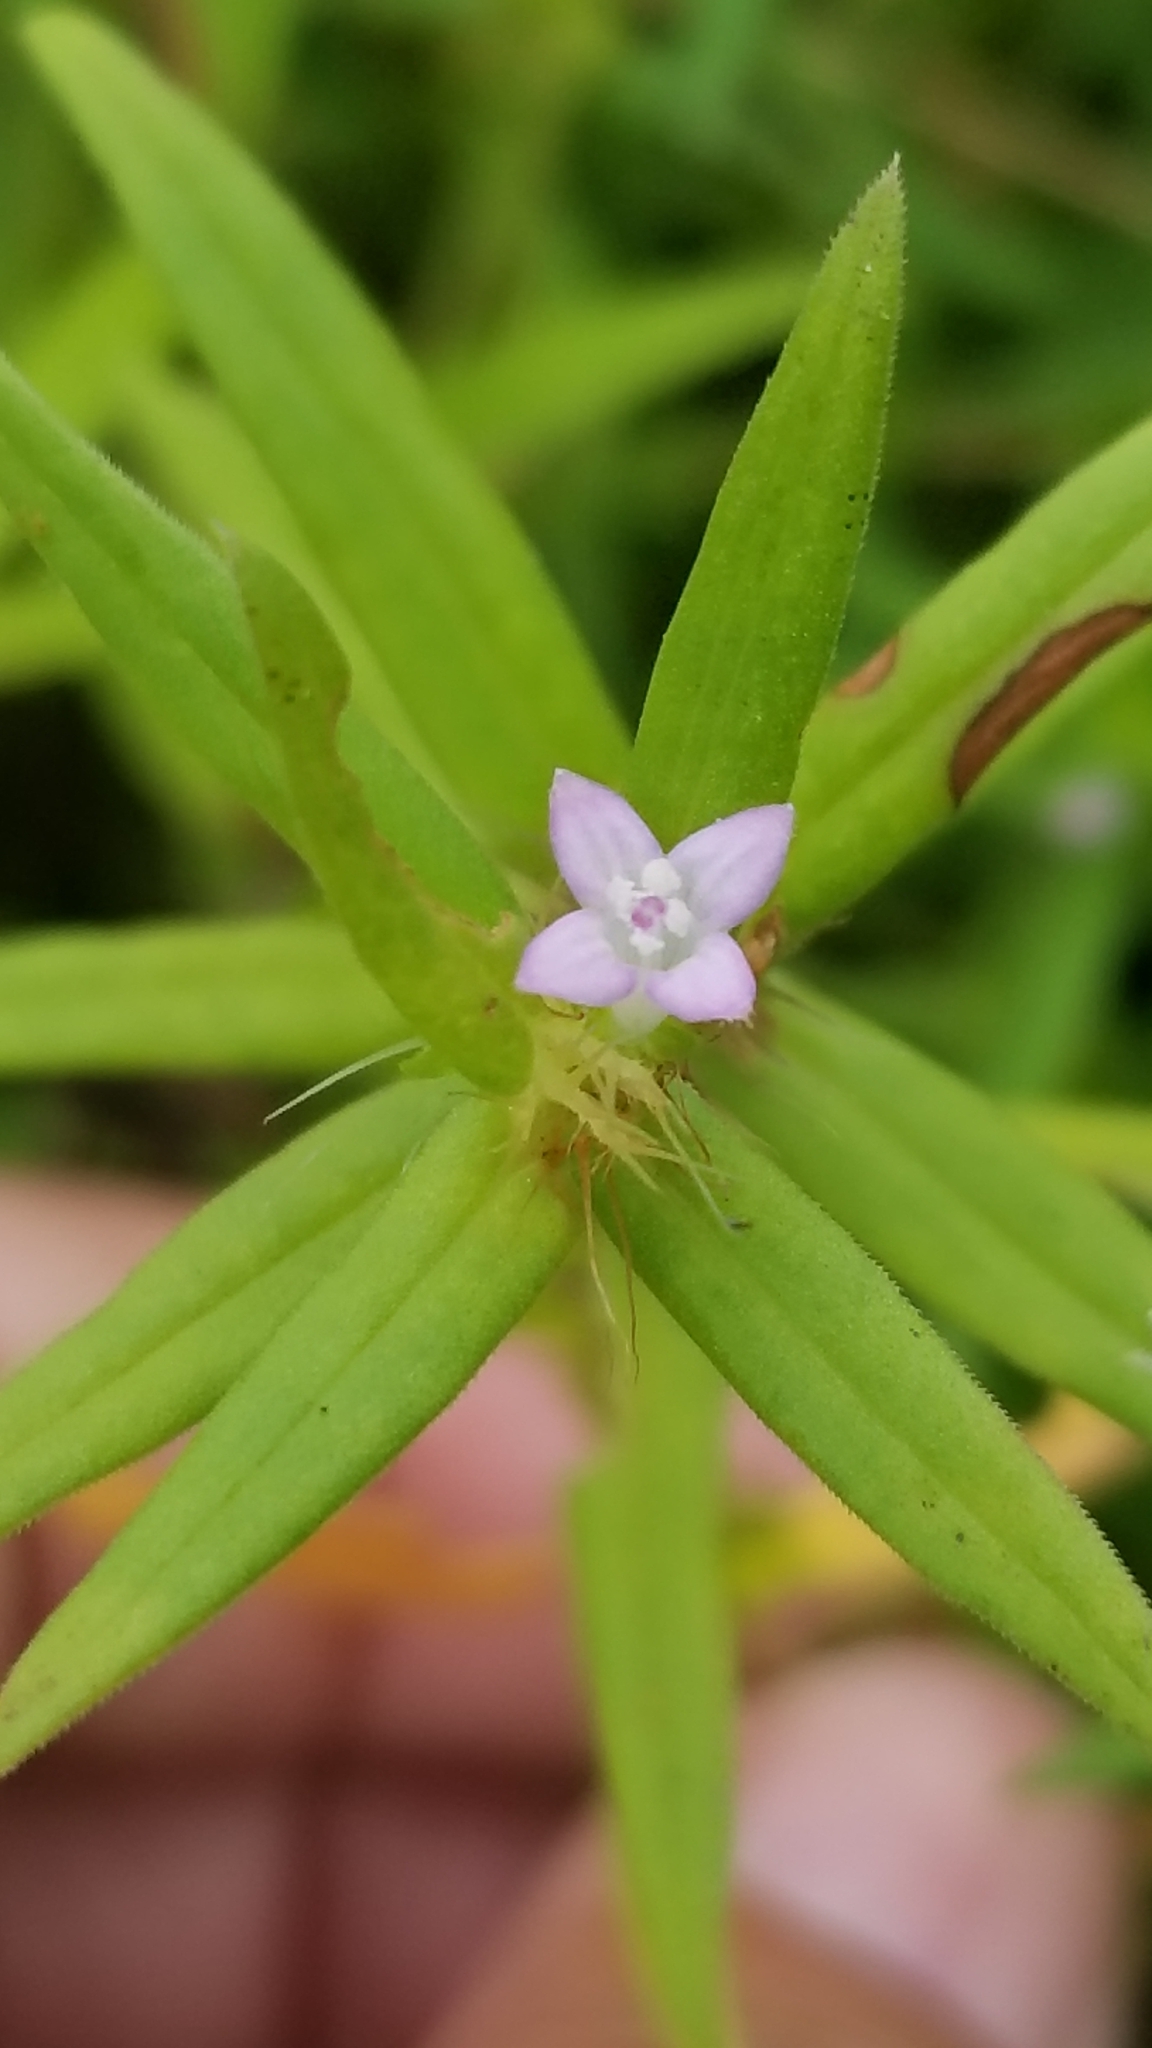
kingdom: Plantae
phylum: Tracheophyta
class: Magnoliopsida
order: Gentianales
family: Rubiaceae
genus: Hexasepalum
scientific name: Hexasepalum teres
